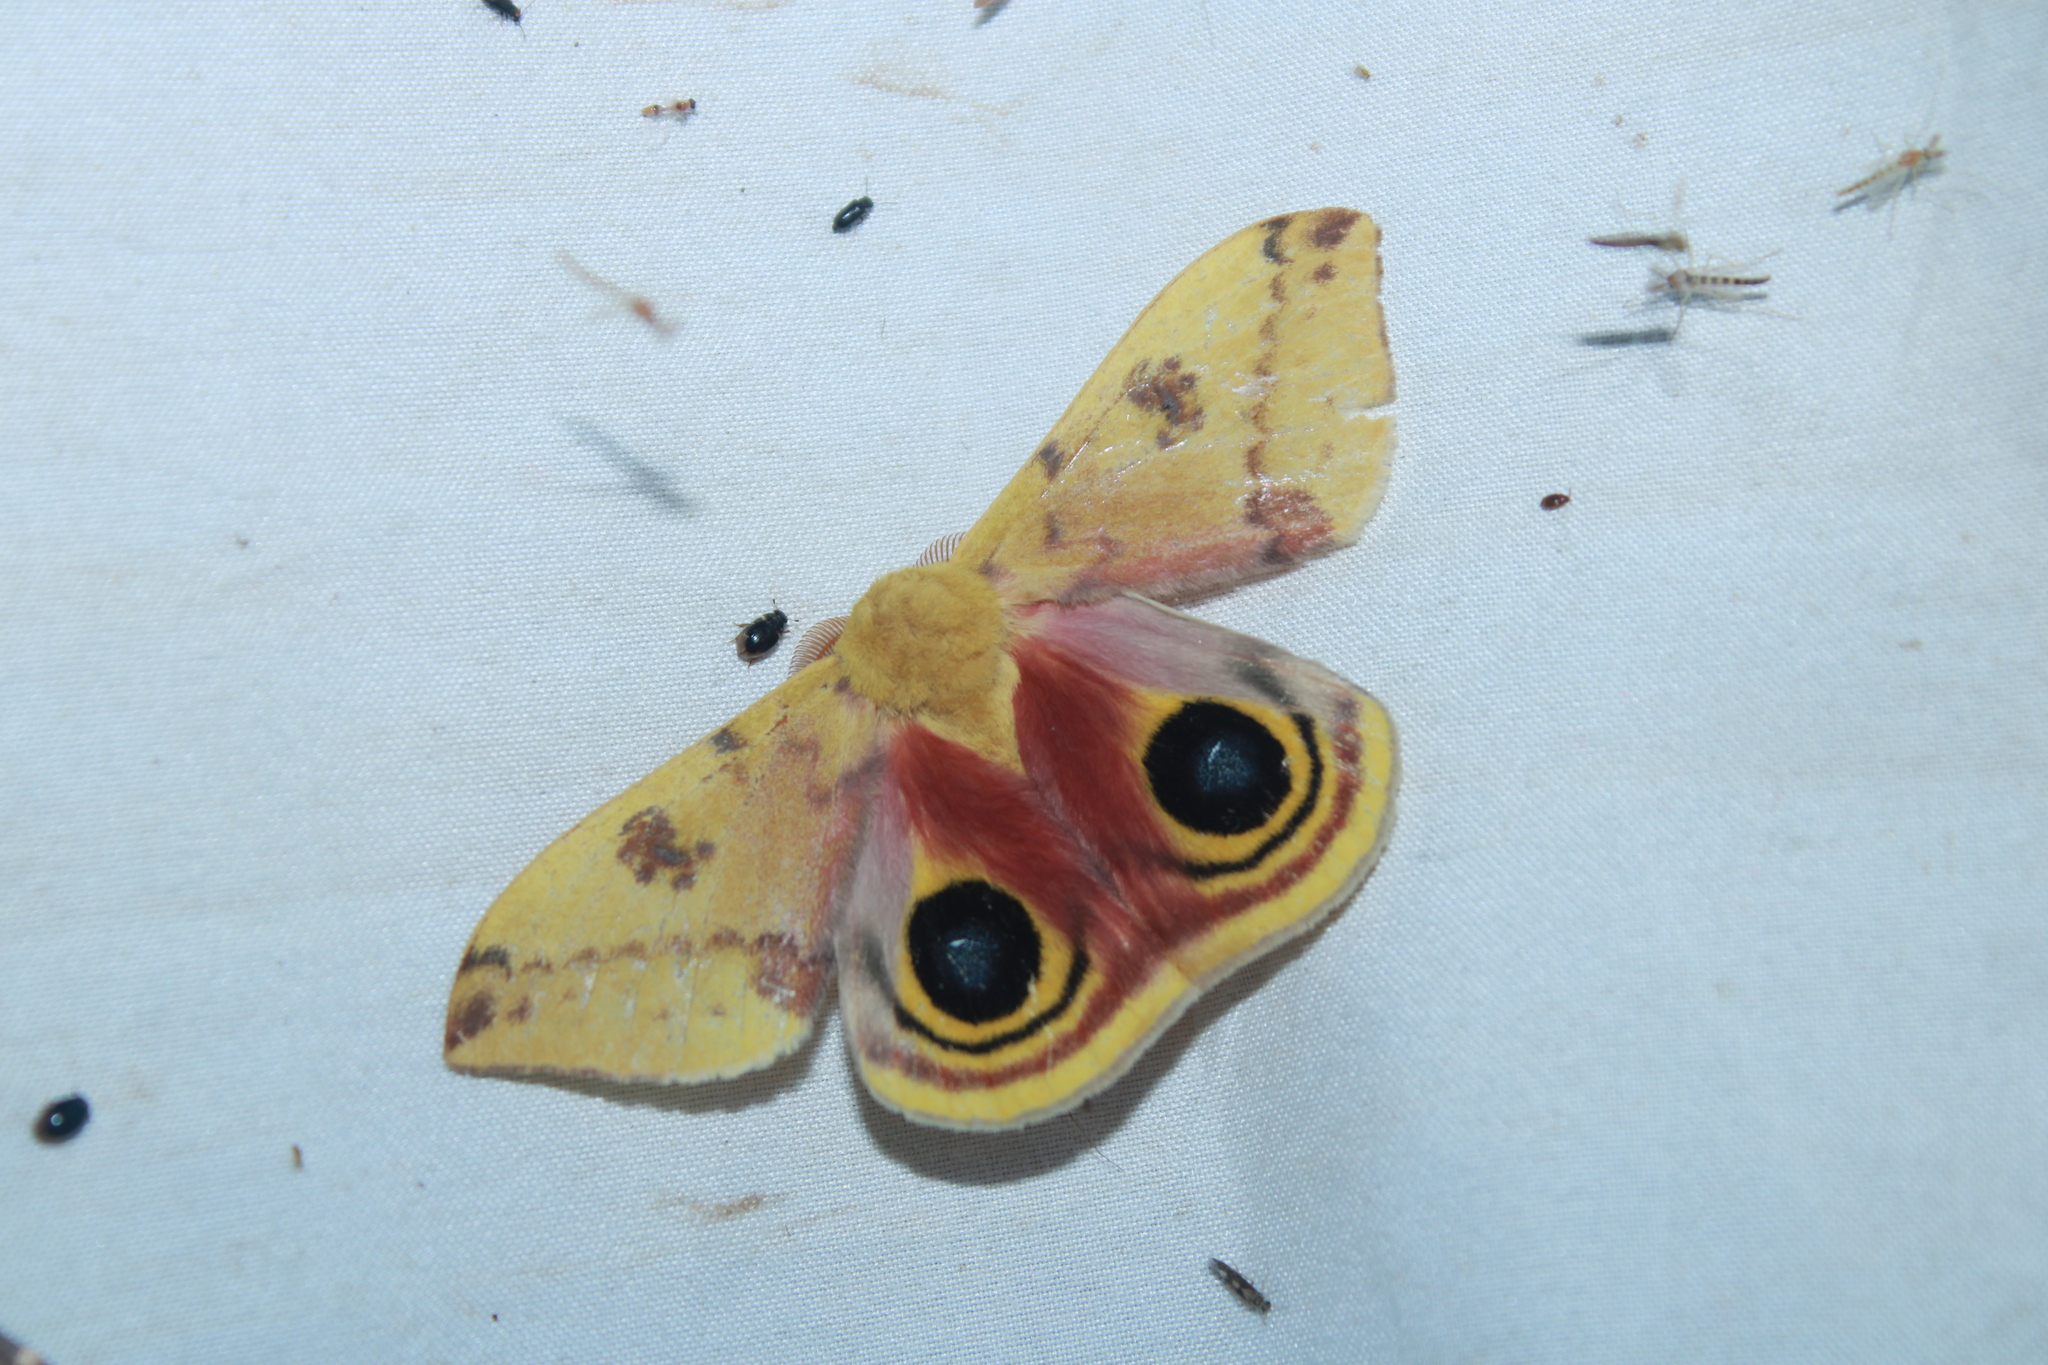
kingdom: Animalia
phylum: Arthropoda
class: Insecta
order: Lepidoptera
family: Saturniidae
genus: Automeris
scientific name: Automeris io
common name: Io moth
